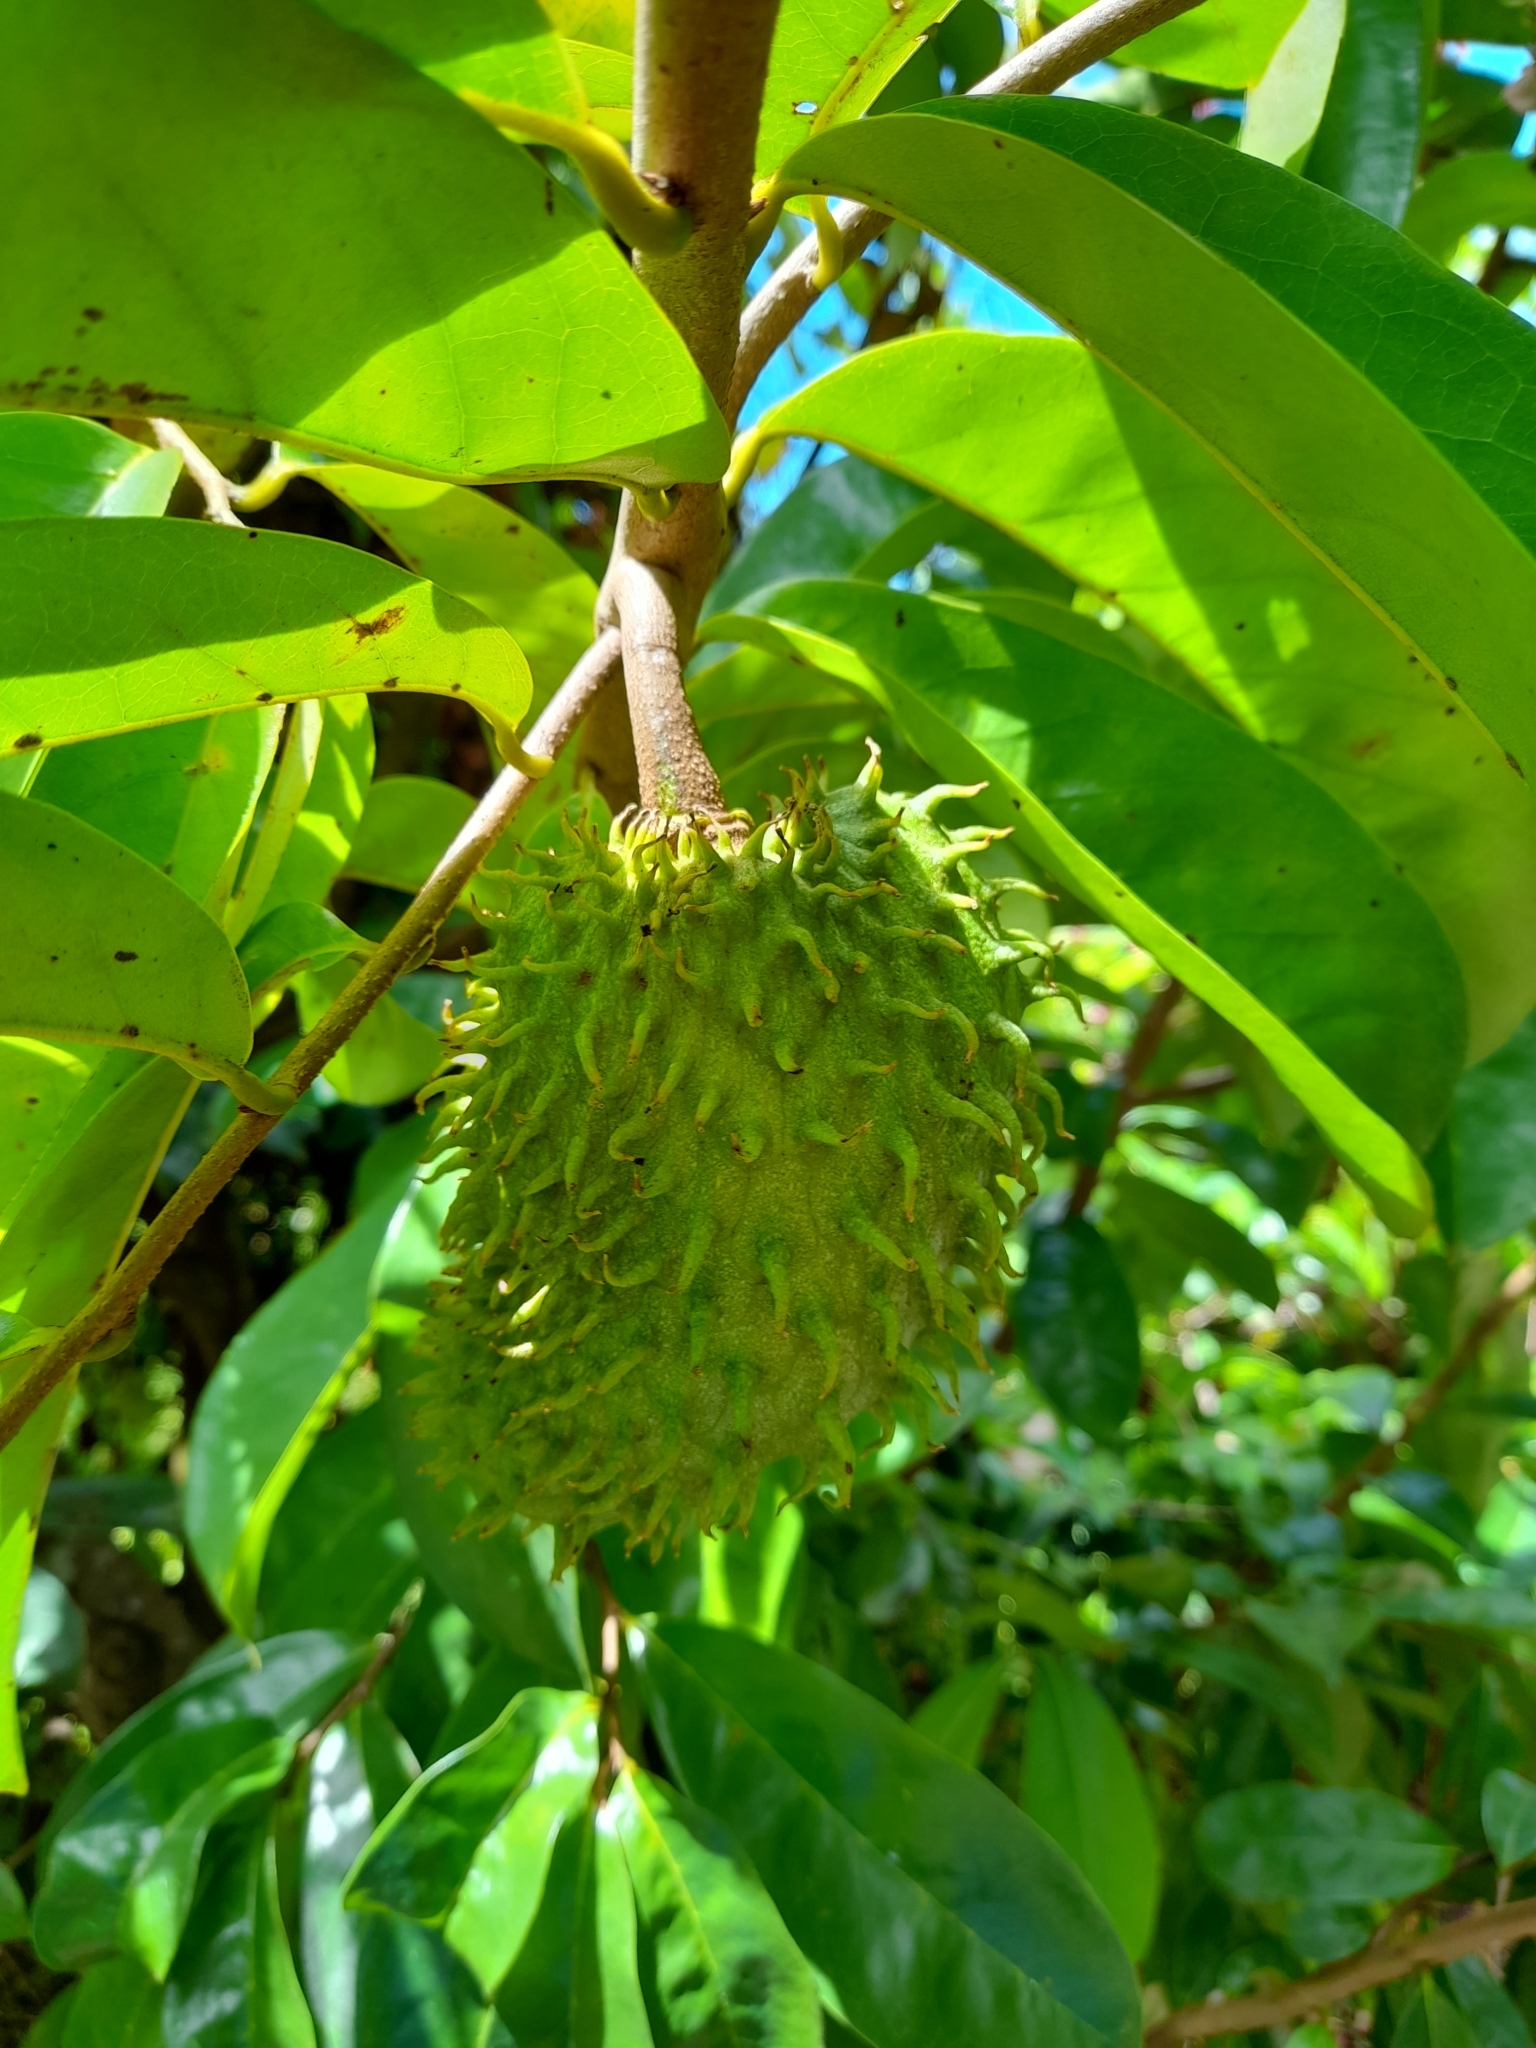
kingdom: Plantae
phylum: Tracheophyta
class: Magnoliopsida
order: Magnoliales
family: Annonaceae
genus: Annona
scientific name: Annona muricata
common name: Soursop
